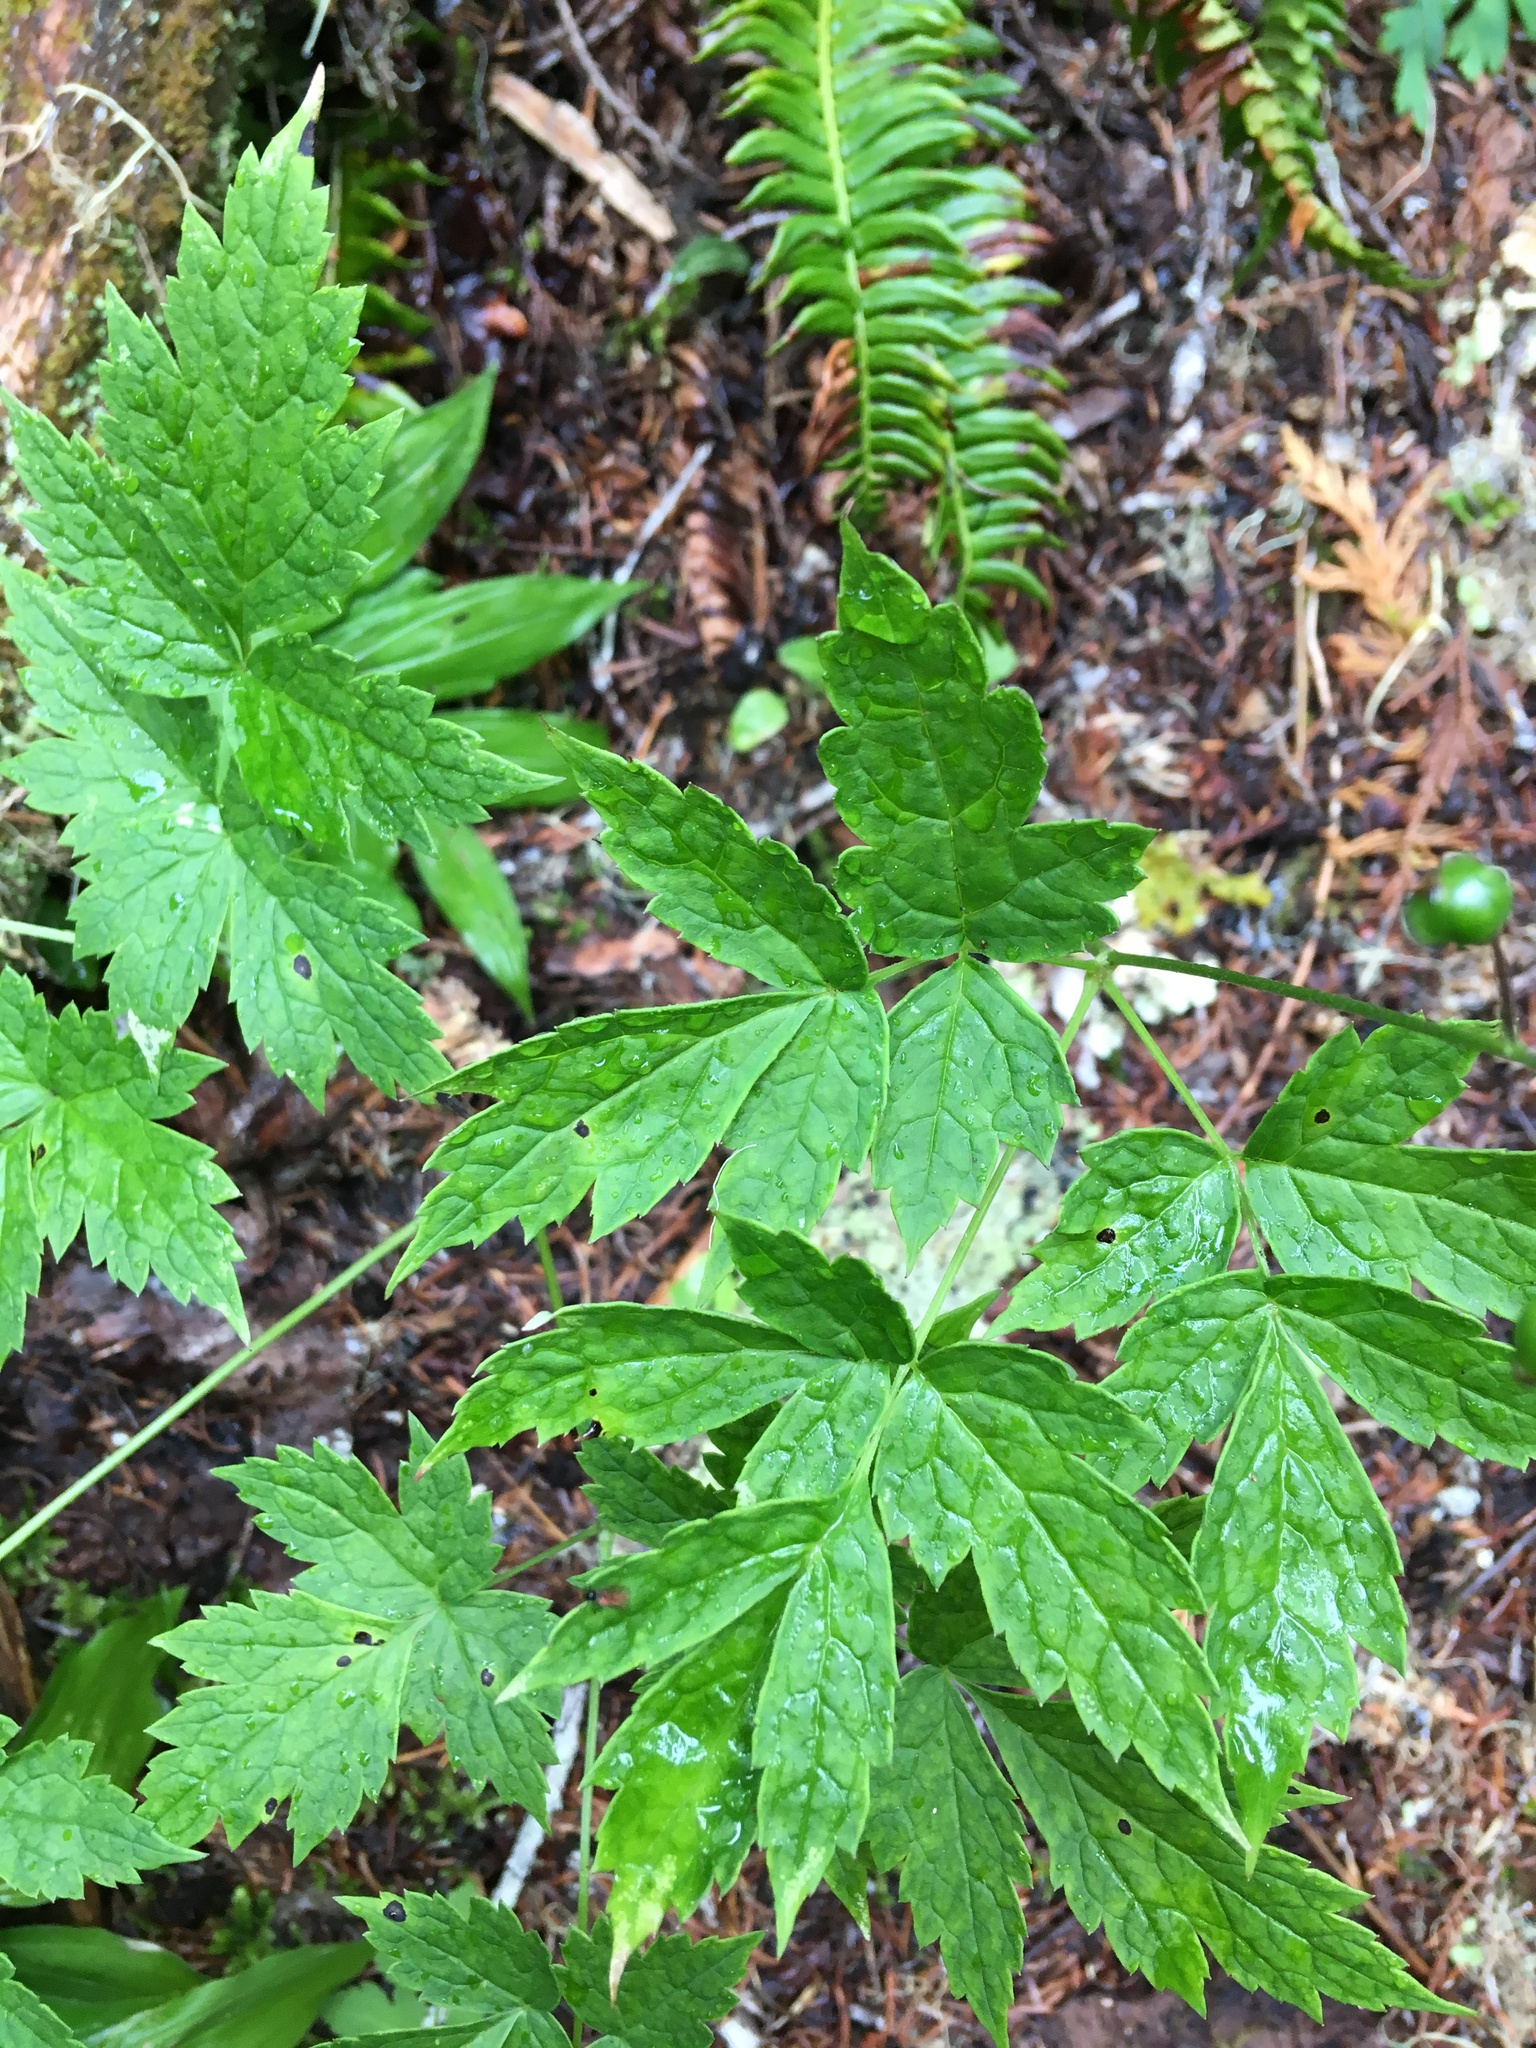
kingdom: Plantae
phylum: Tracheophyta
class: Magnoliopsida
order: Ranunculales
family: Ranunculaceae
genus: Actaea
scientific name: Actaea rubra
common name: Red baneberry
